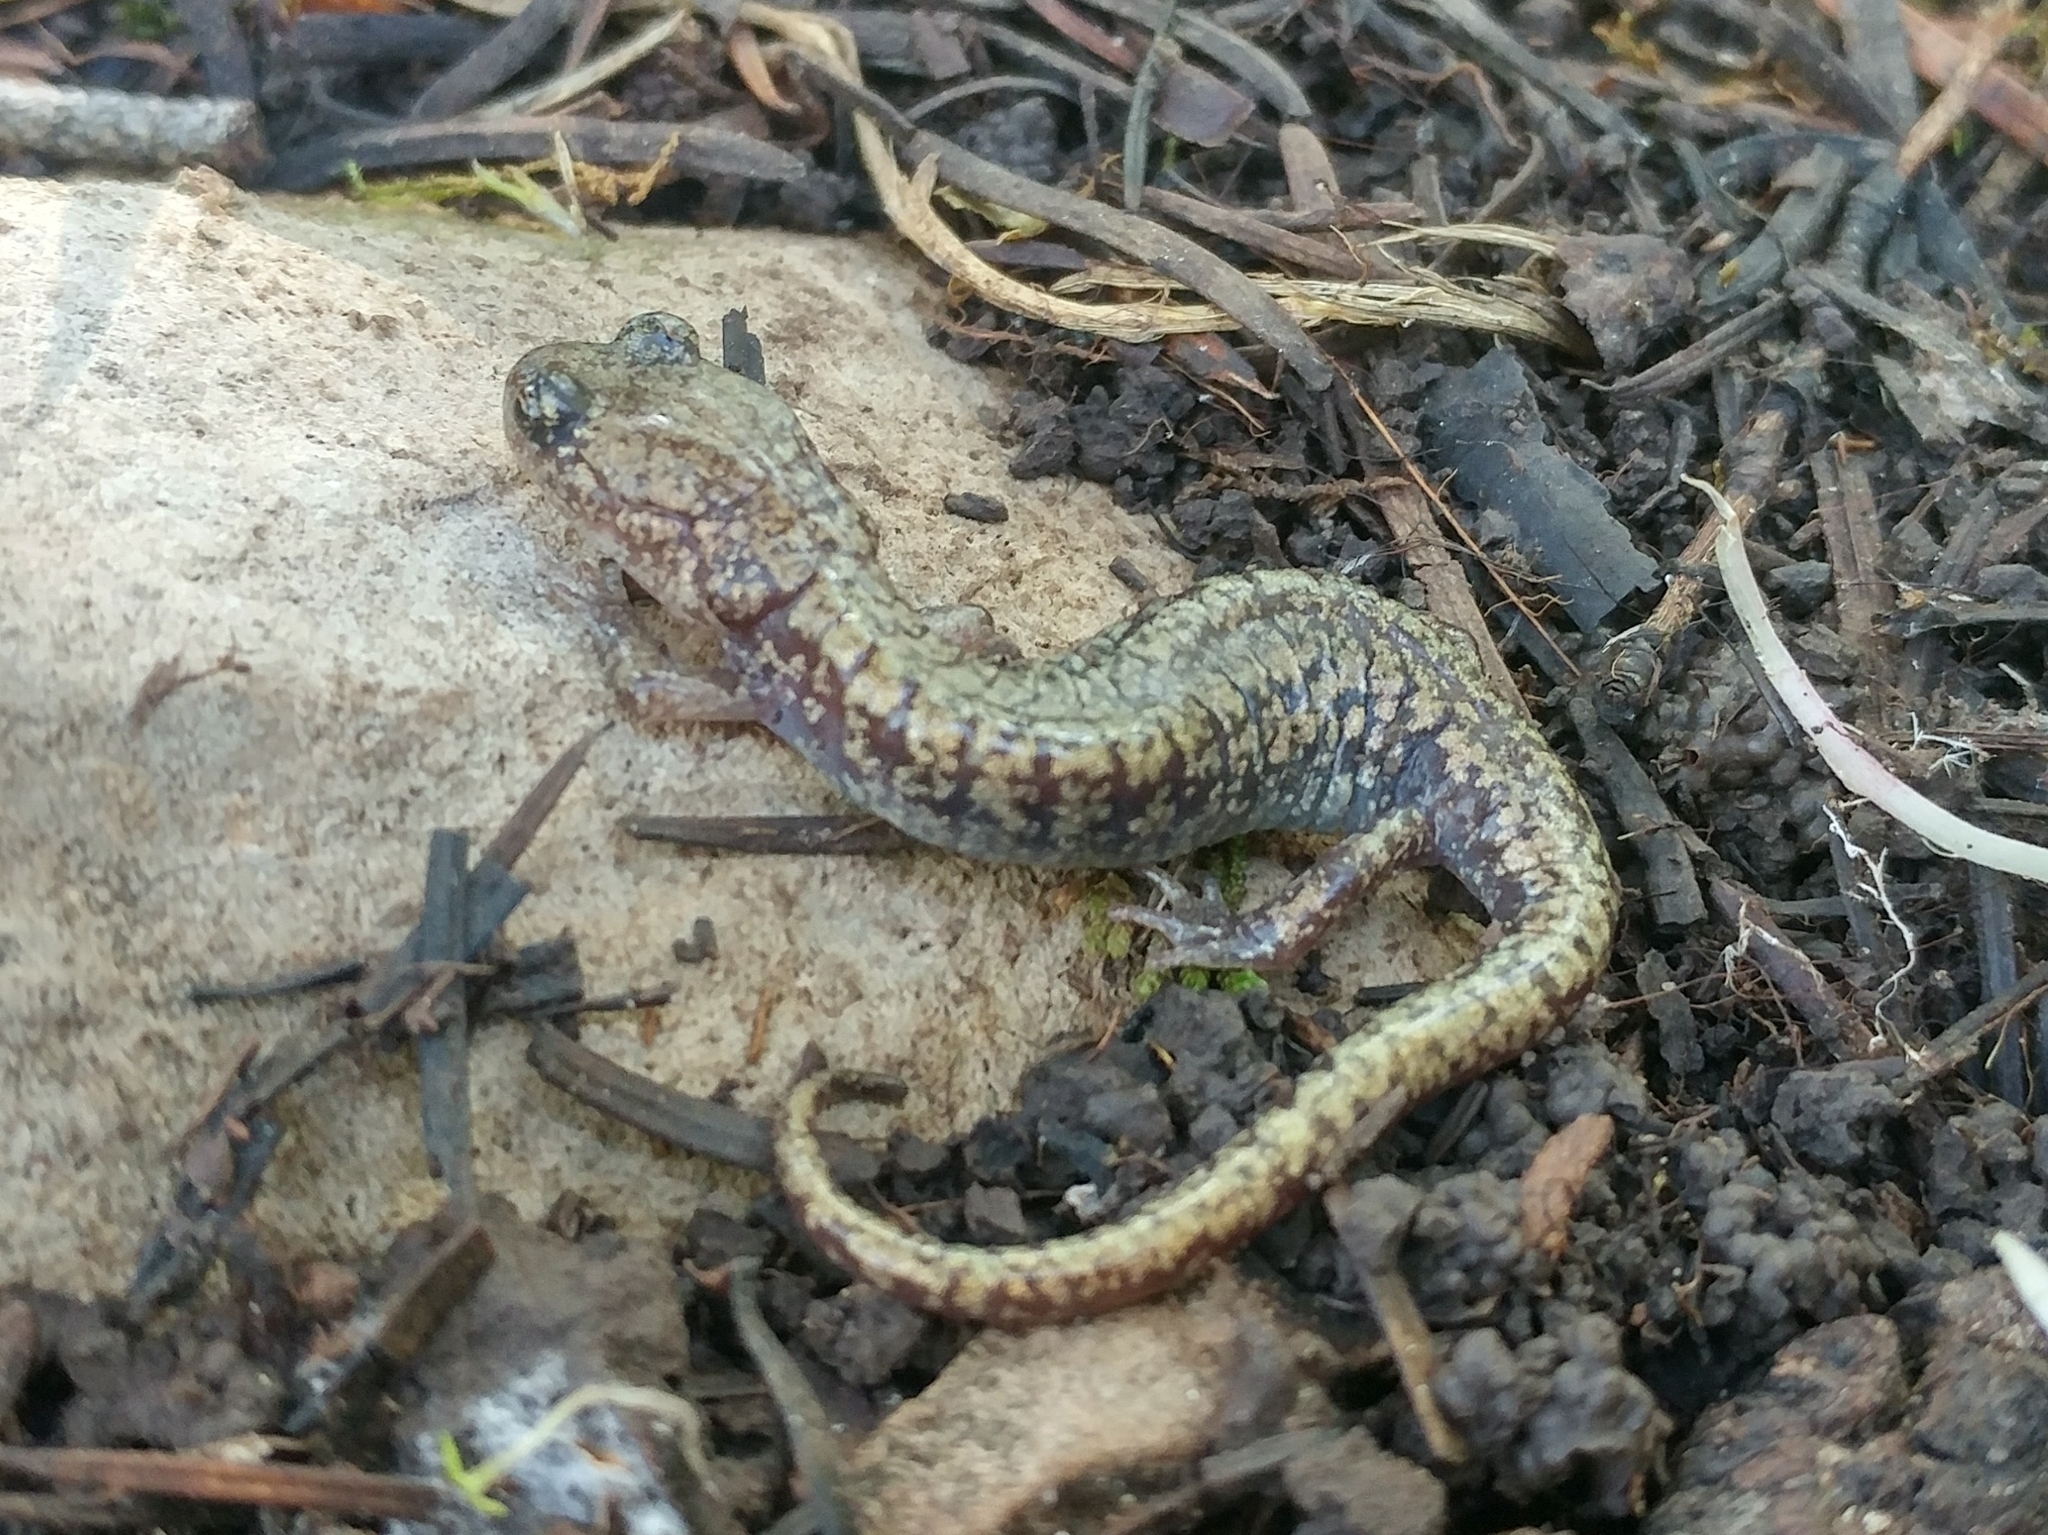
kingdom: Animalia
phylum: Chordata
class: Amphibia
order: Caudata
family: Plethodontidae
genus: Aneides
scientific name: Aneides hardii
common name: Sacramento mountain salamander
